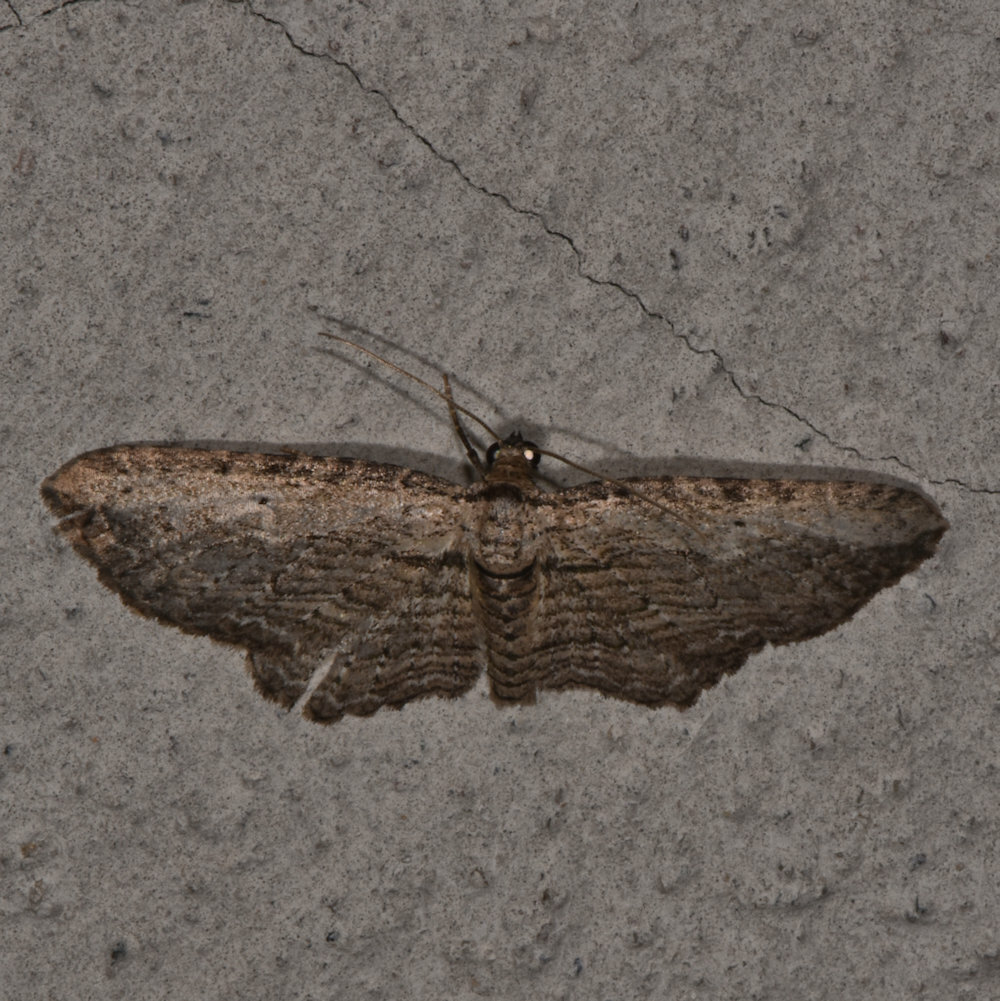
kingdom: Animalia
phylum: Arthropoda
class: Insecta
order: Lepidoptera
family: Geometridae
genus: Horisme
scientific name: Horisme intestinata
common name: Brown bark carpet
